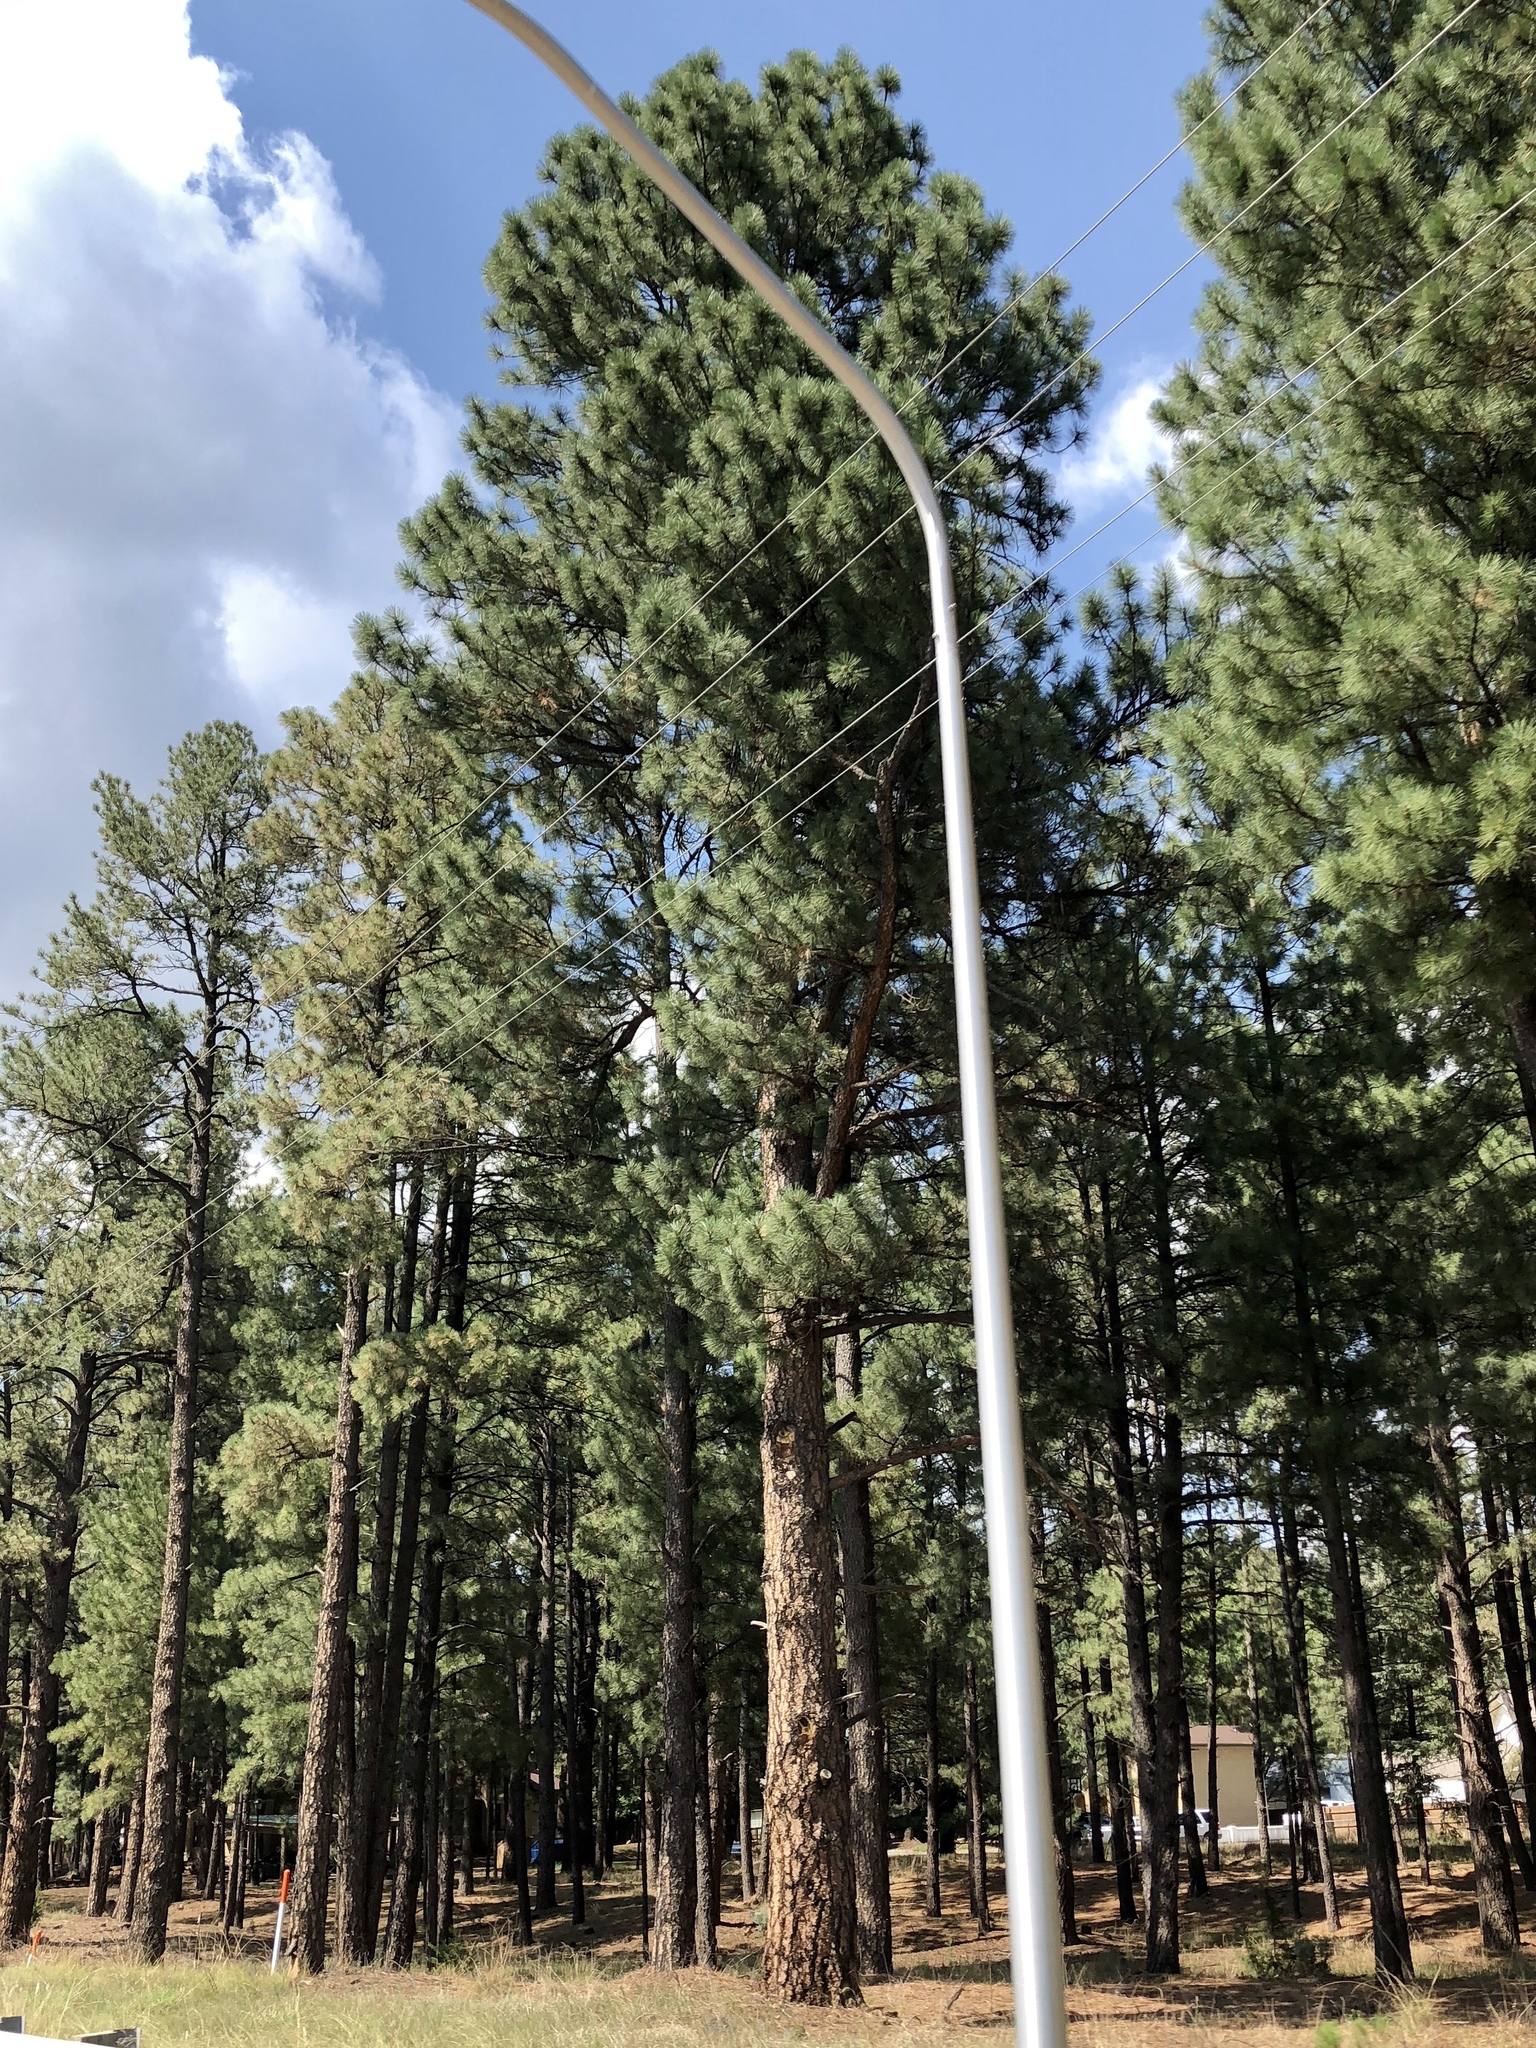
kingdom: Plantae
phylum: Tracheophyta
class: Pinopsida
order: Pinales
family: Pinaceae
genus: Pinus
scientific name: Pinus ponderosa
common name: Western yellow-pine
